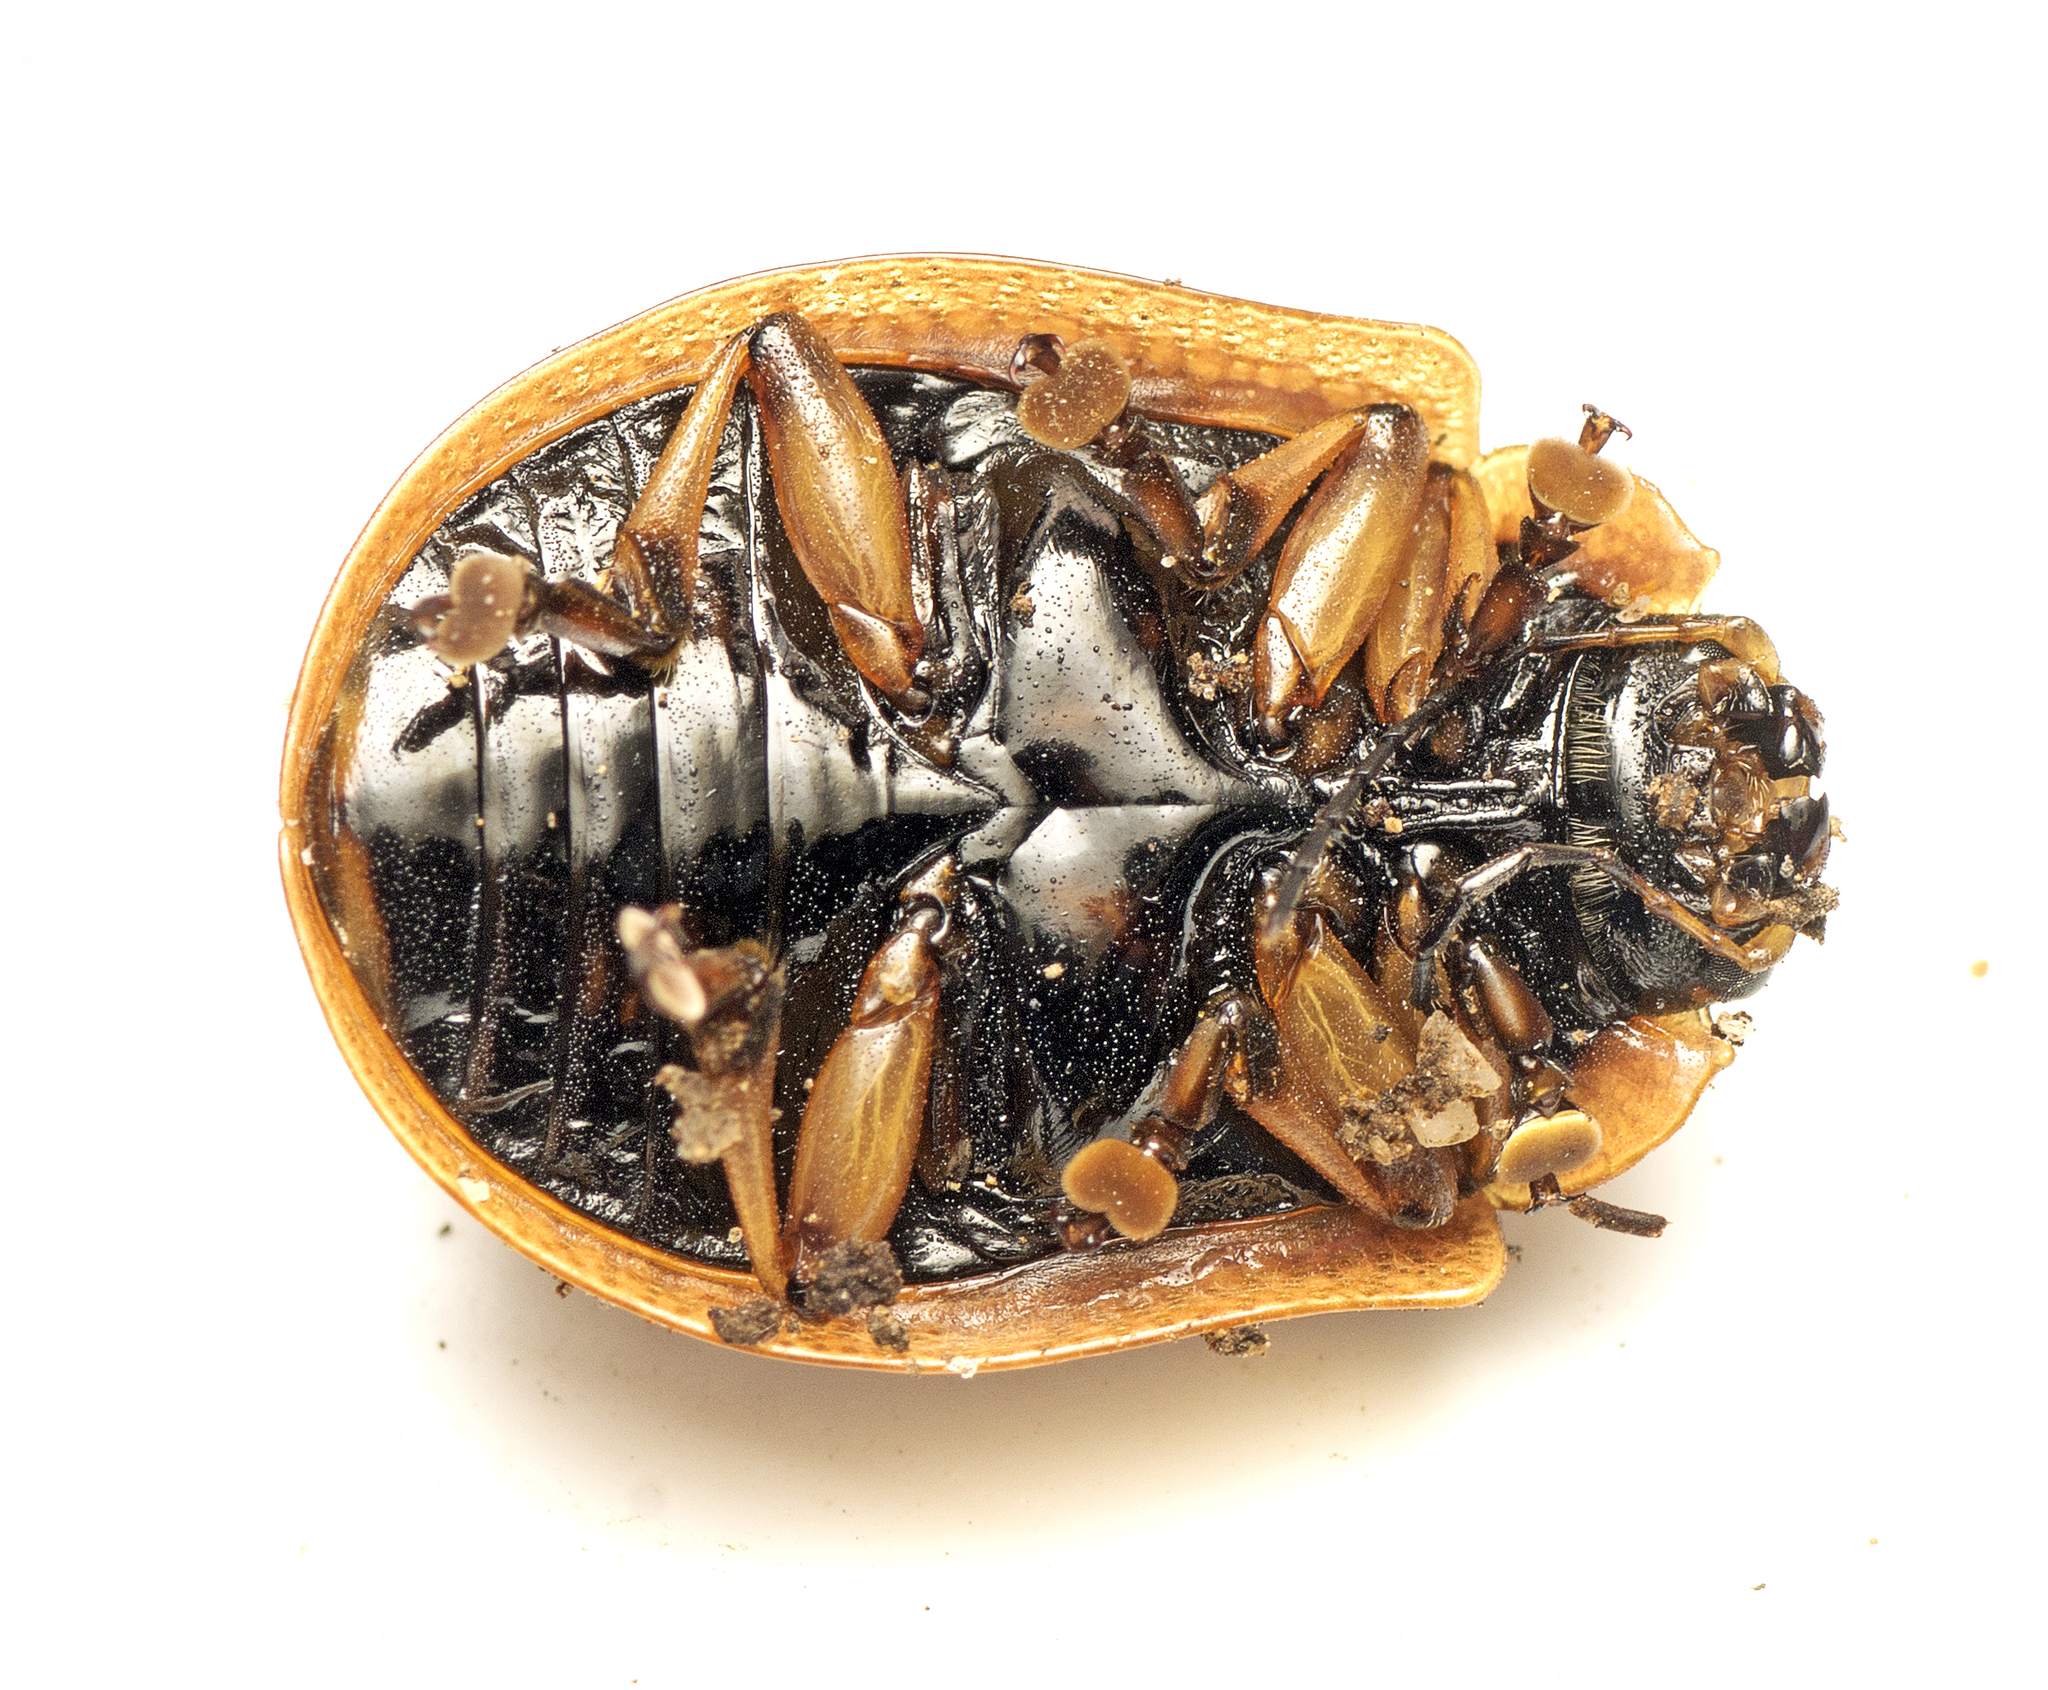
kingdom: Animalia
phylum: Arthropoda
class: Insecta
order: Coleoptera
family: Chrysomelidae
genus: Paropsis
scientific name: Paropsis
